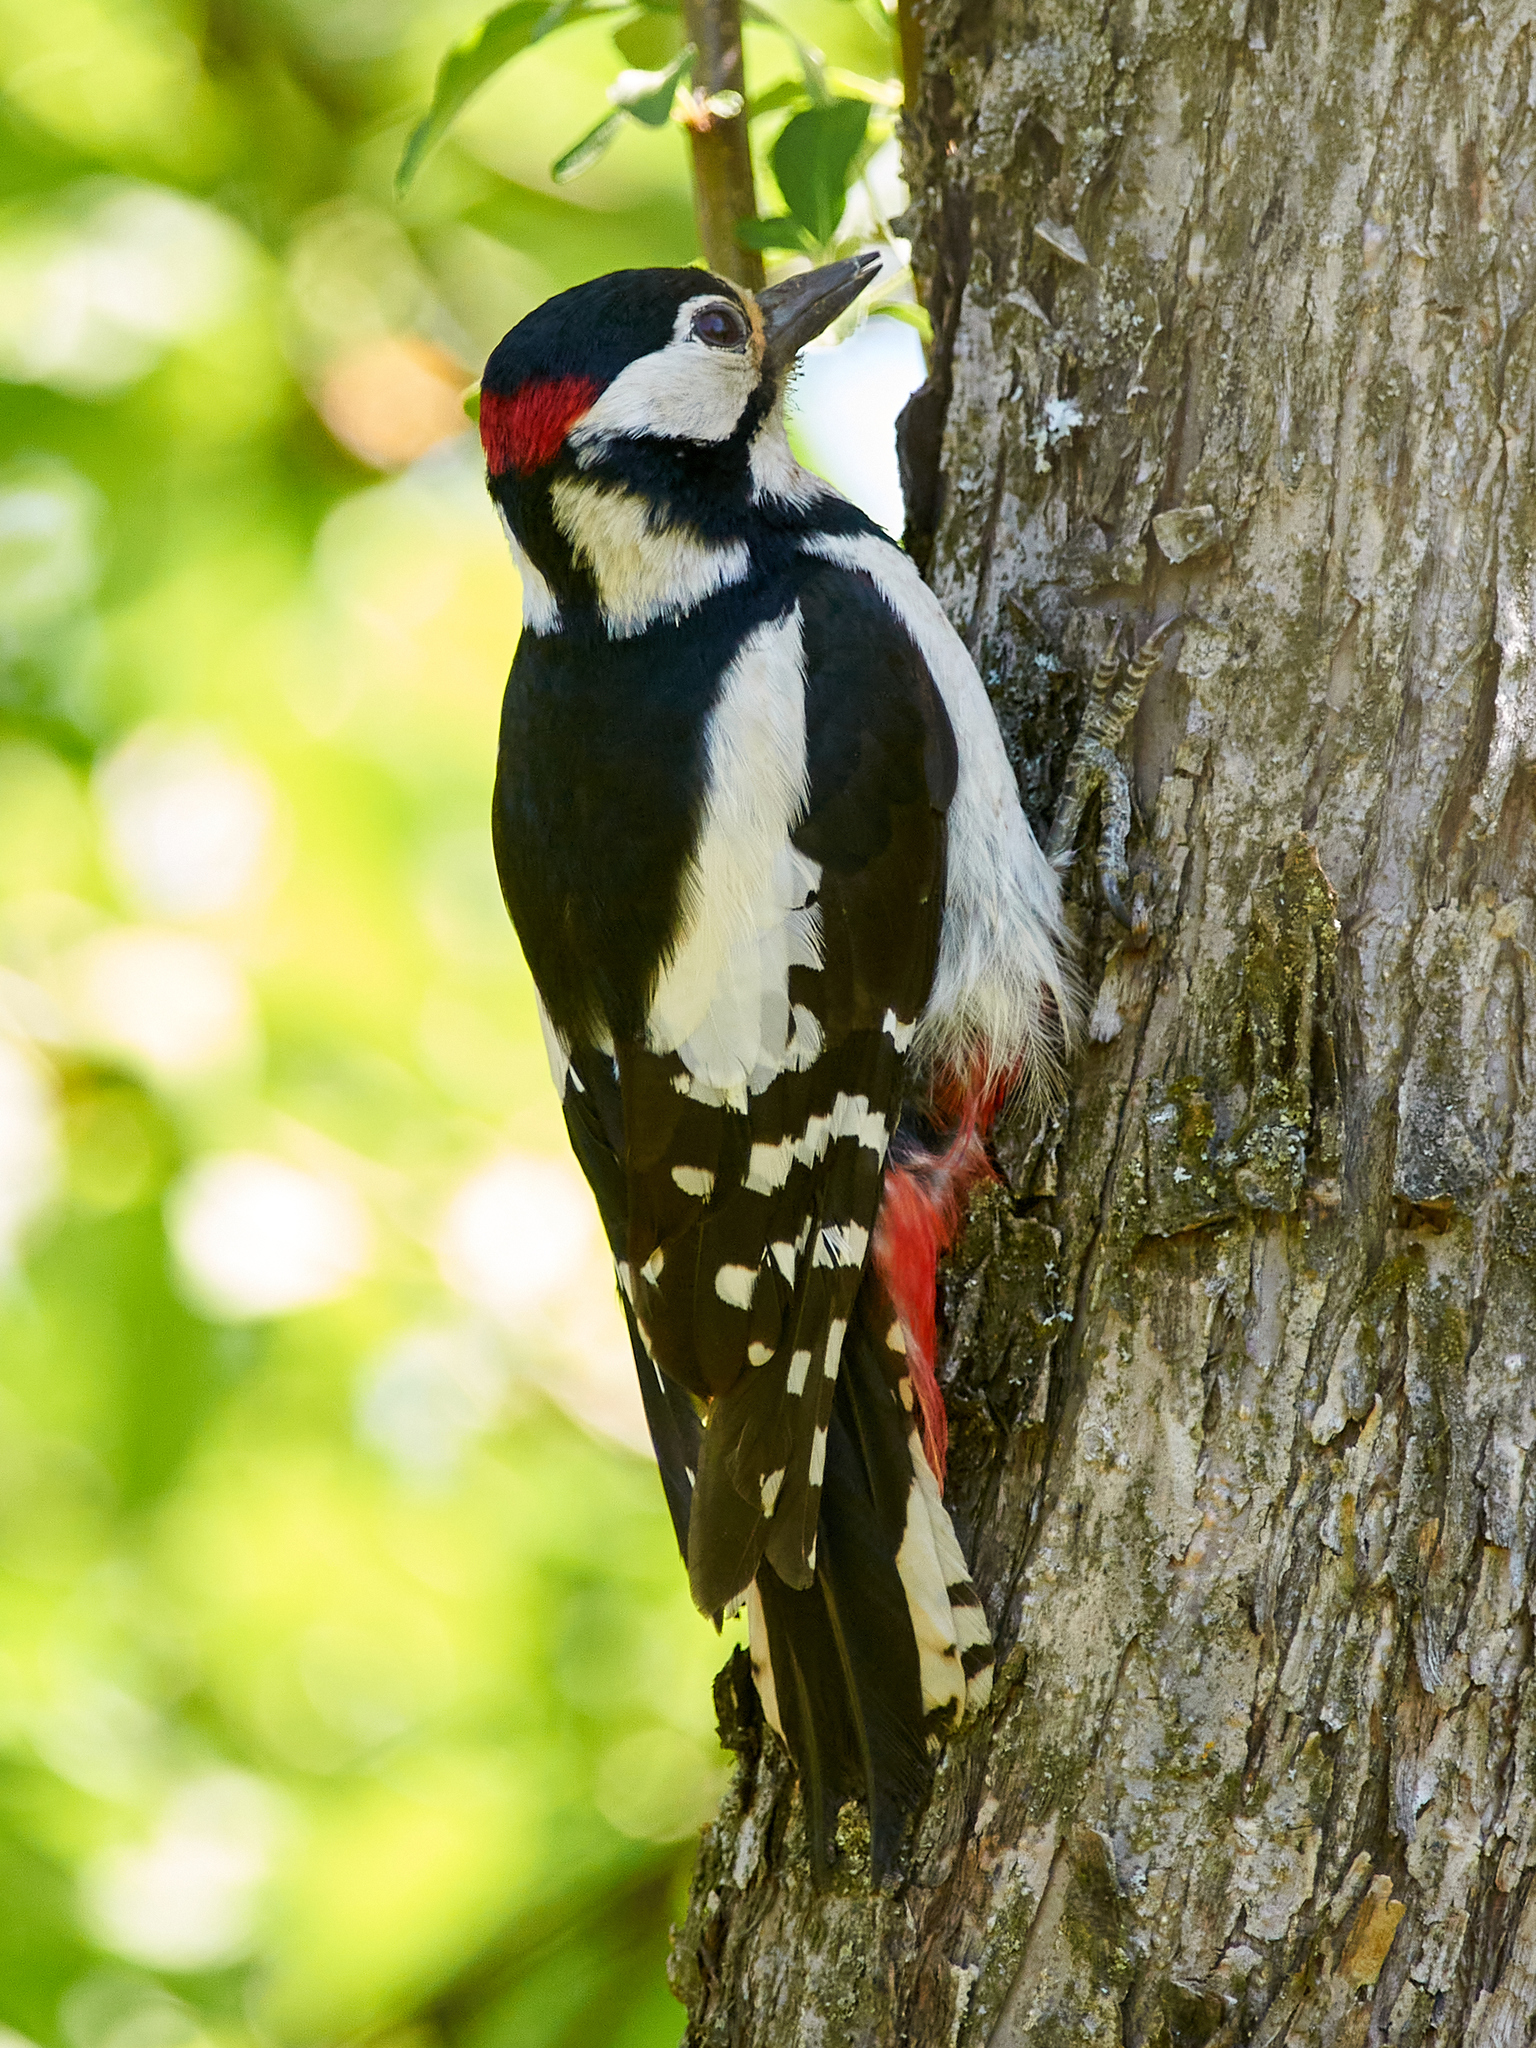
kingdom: Animalia
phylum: Chordata
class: Aves
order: Piciformes
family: Picidae
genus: Dendrocopos
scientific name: Dendrocopos major
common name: Great spotted woodpecker
